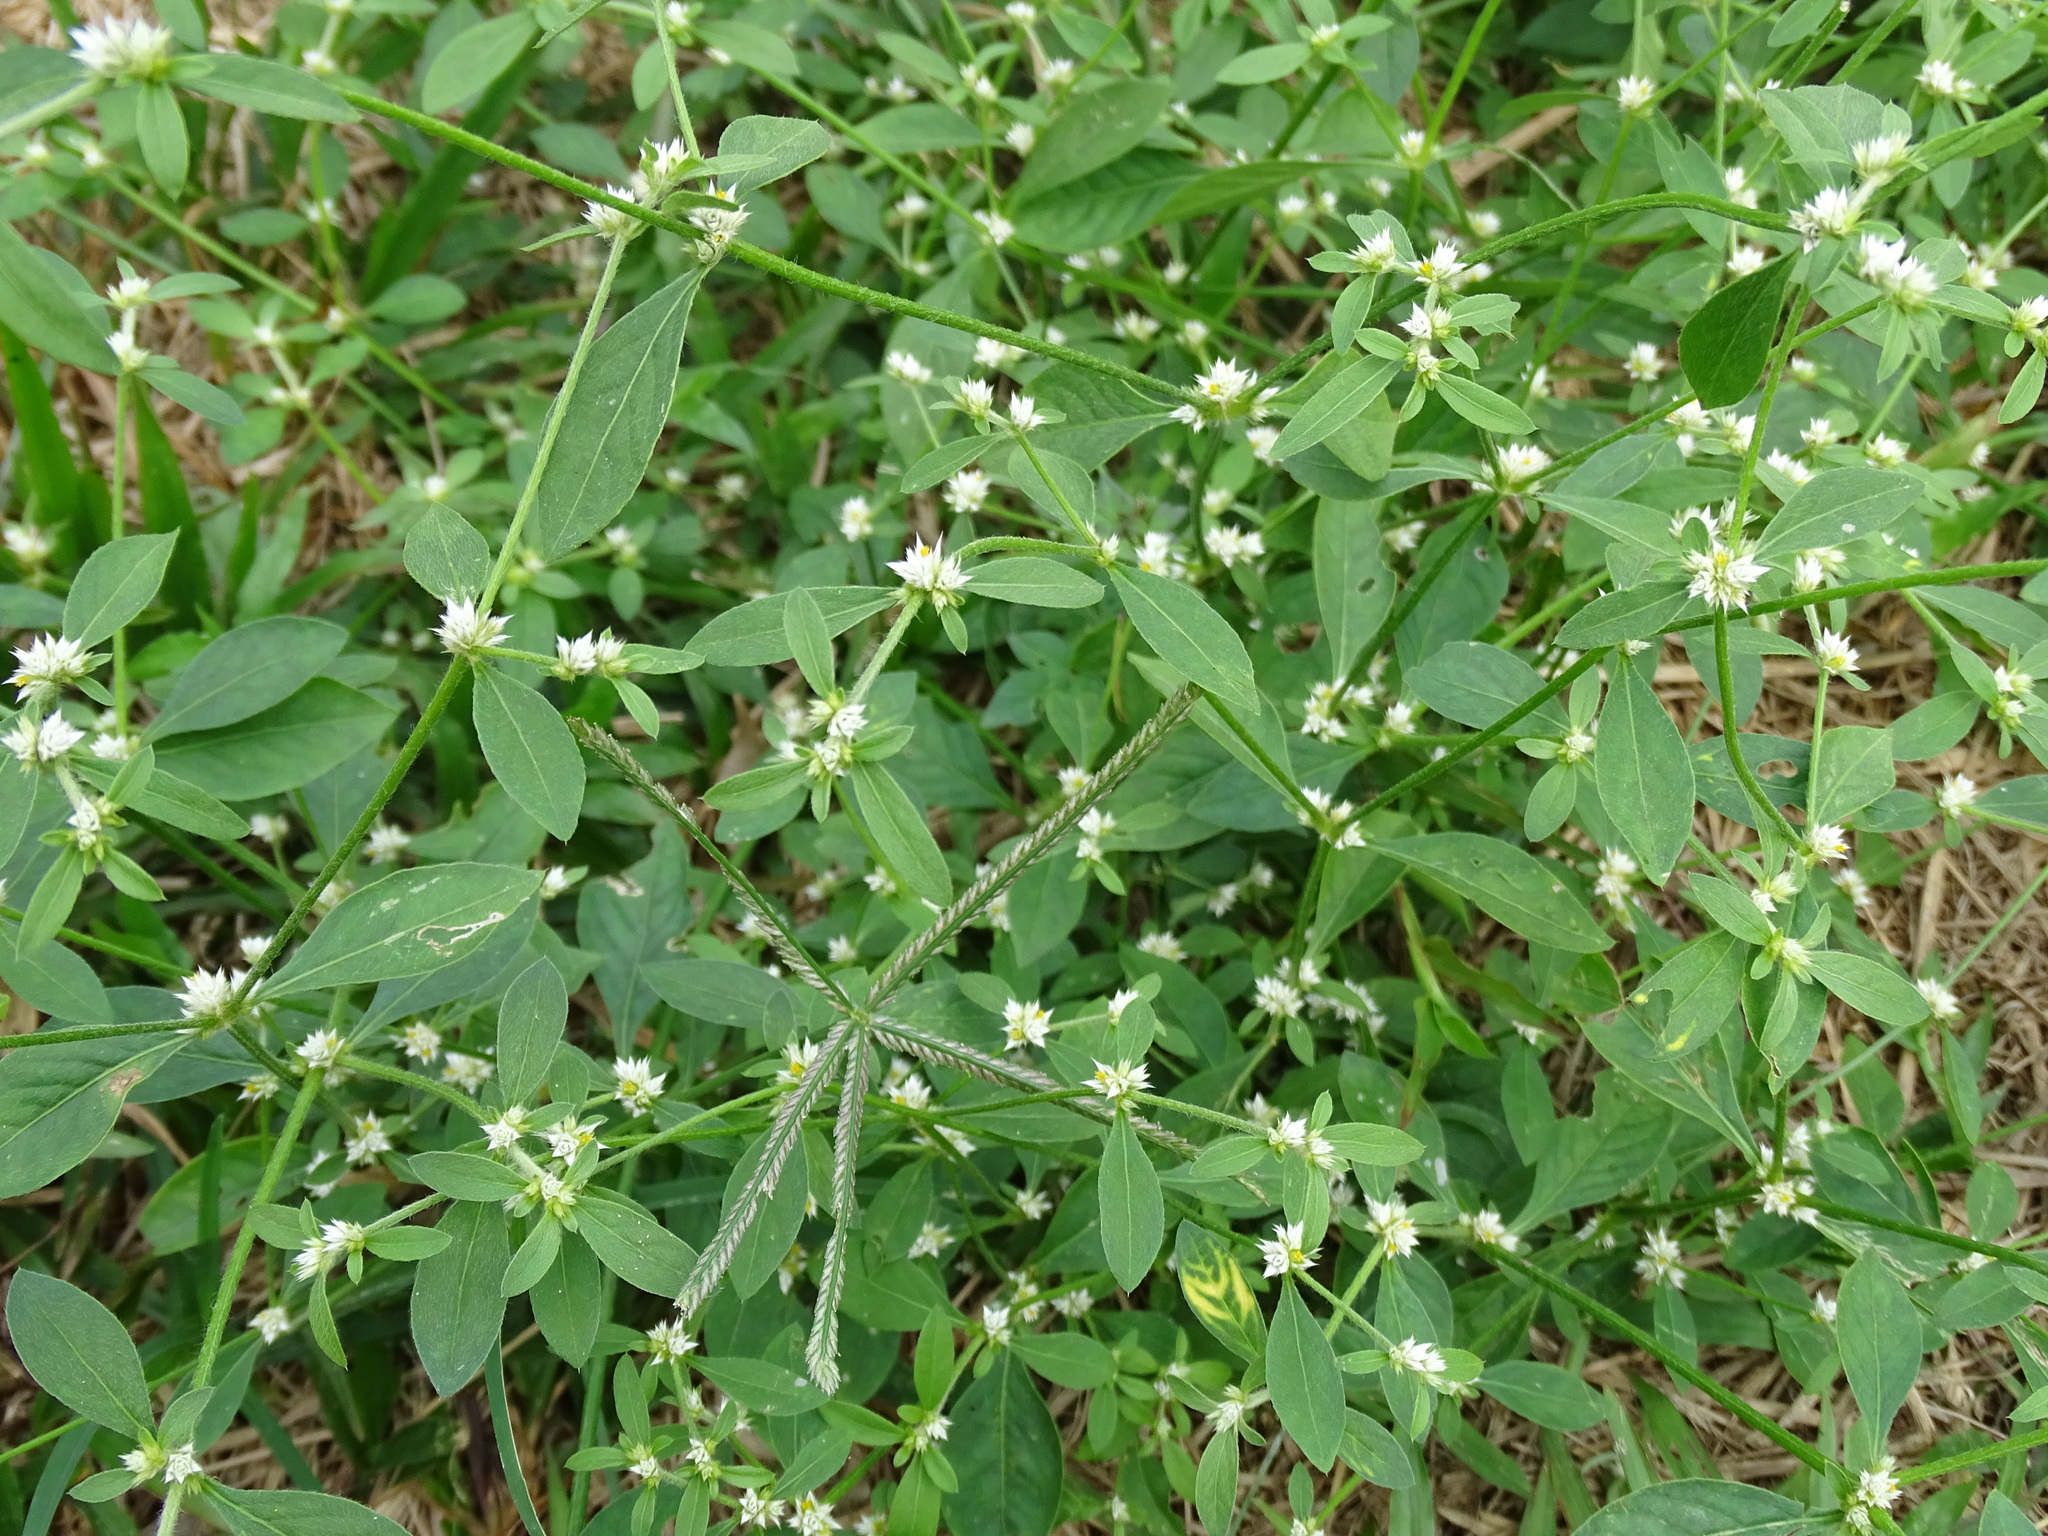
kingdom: Plantae
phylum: Tracheophyta
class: Magnoliopsida
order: Caryophyllales
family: Amaranthaceae
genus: Alternanthera
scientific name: Alternanthera bettzickiana
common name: Calico-plant
